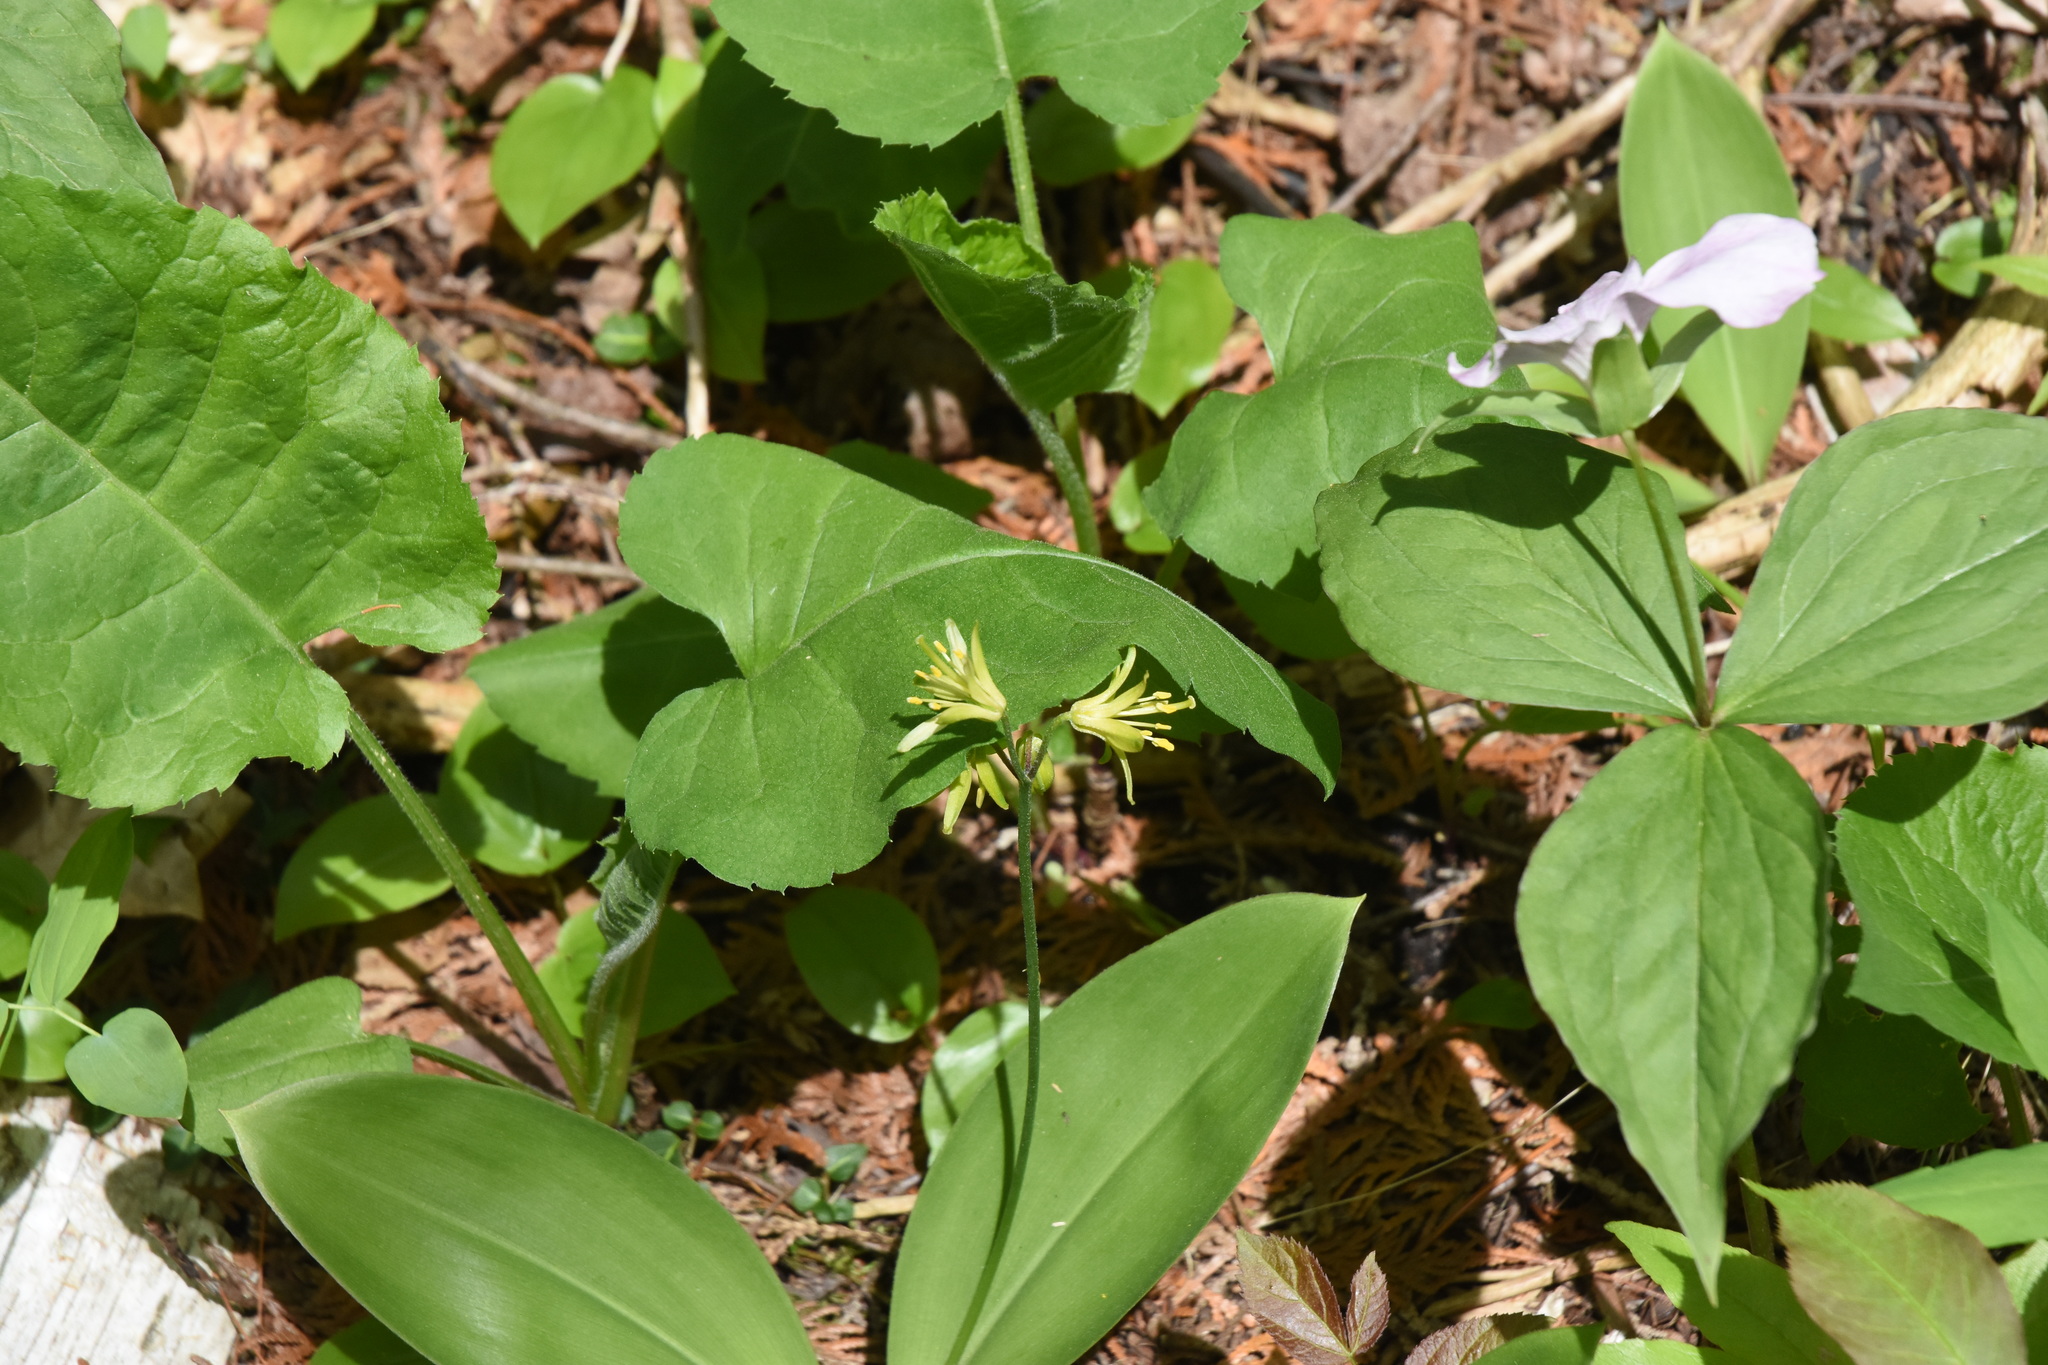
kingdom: Plantae
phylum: Tracheophyta
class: Liliopsida
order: Liliales
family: Liliaceae
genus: Clintonia
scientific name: Clintonia borealis
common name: Yellow clintonia
